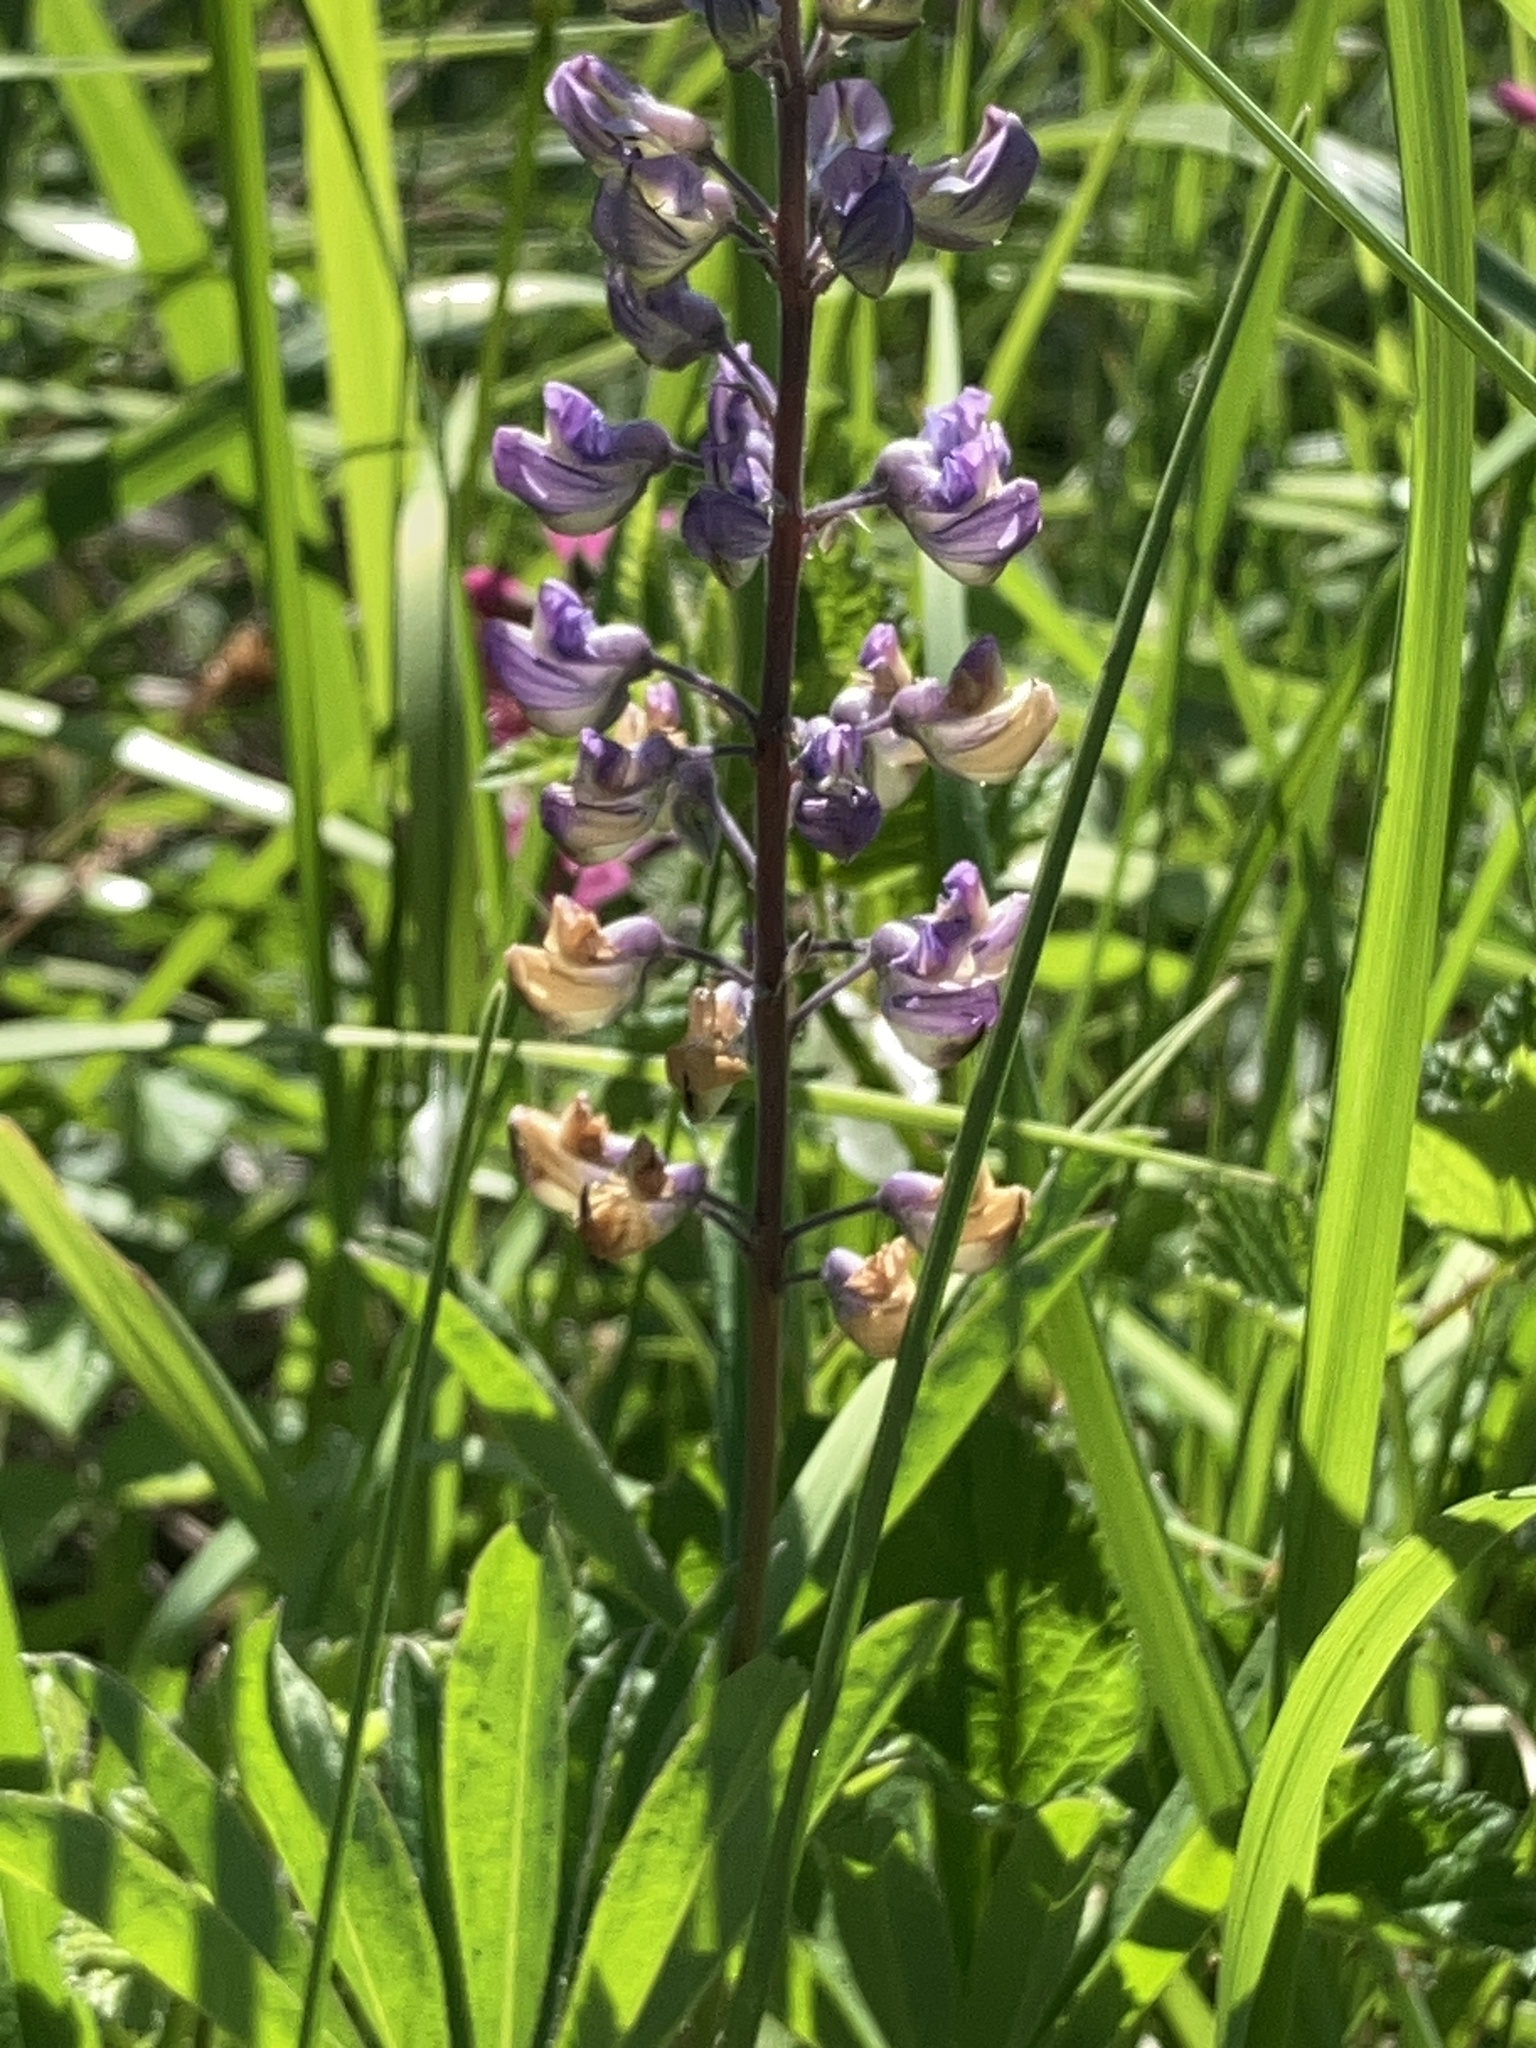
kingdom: Plantae
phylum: Tracheophyta
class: Magnoliopsida
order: Fabales
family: Fabaceae
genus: Lupinus
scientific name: Lupinus oreganus
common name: Kincaid's lupine
